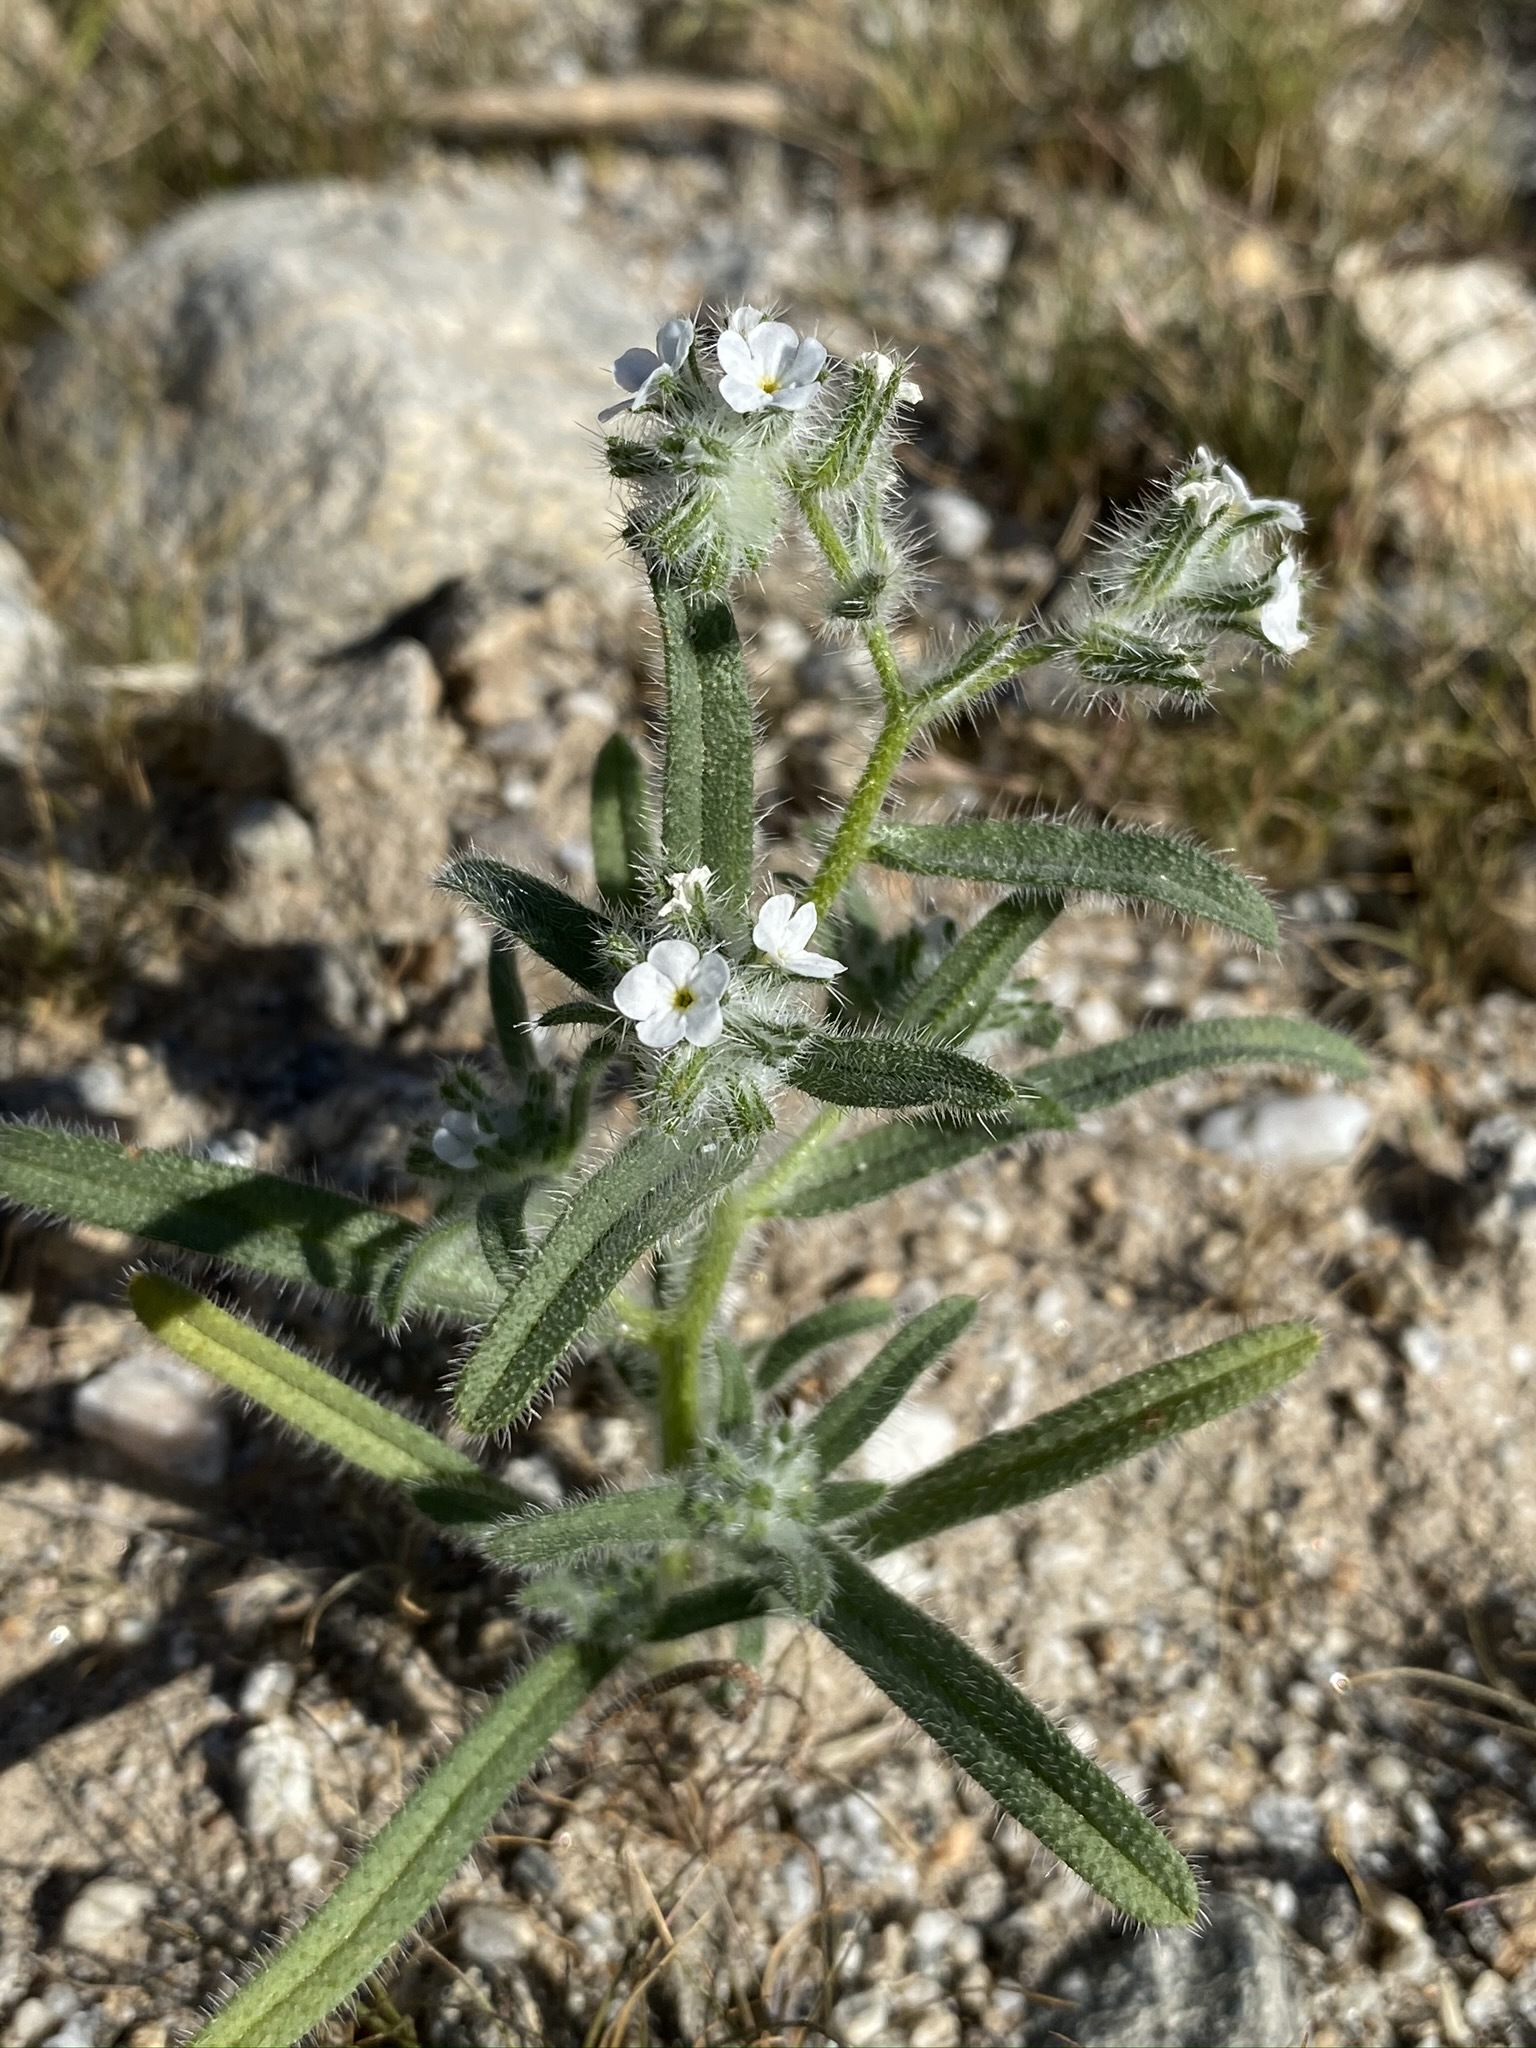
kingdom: Plantae
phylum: Tracheophyta
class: Magnoliopsida
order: Boraginales
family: Boraginaceae
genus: Cryptantha
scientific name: Cryptantha intermedia
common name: Clearwater cryptantha
